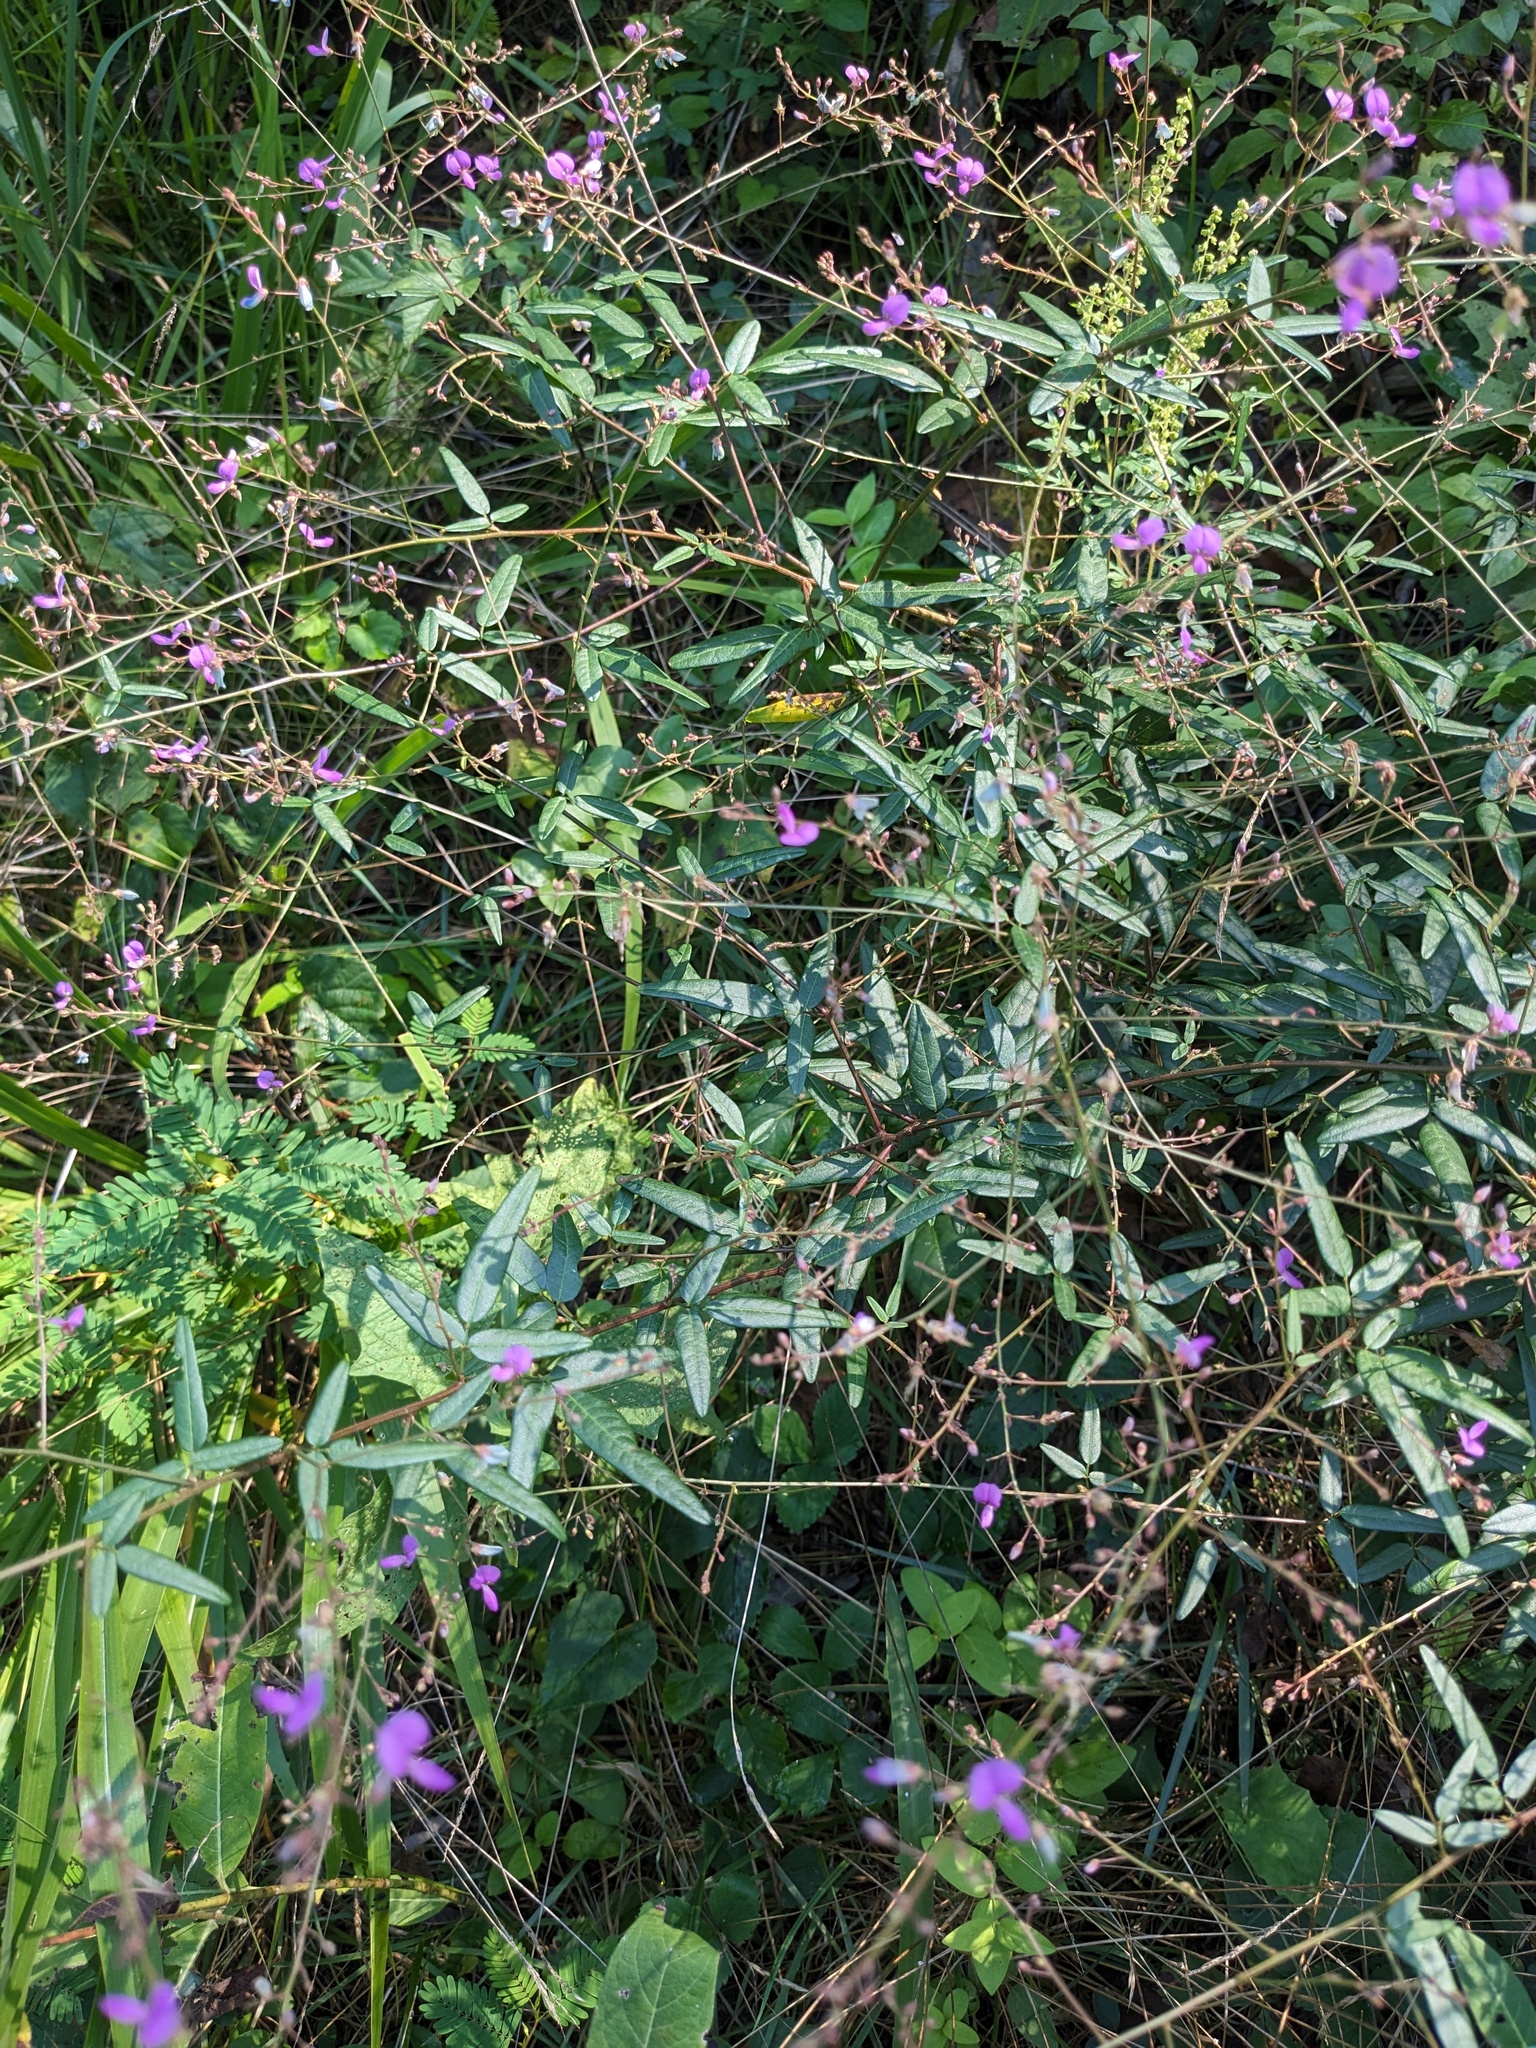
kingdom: Plantae
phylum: Tracheophyta
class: Magnoliopsida
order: Fabales
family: Fabaceae
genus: Desmodium
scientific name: Desmodium paniculatum
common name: Panicled tick-clover
